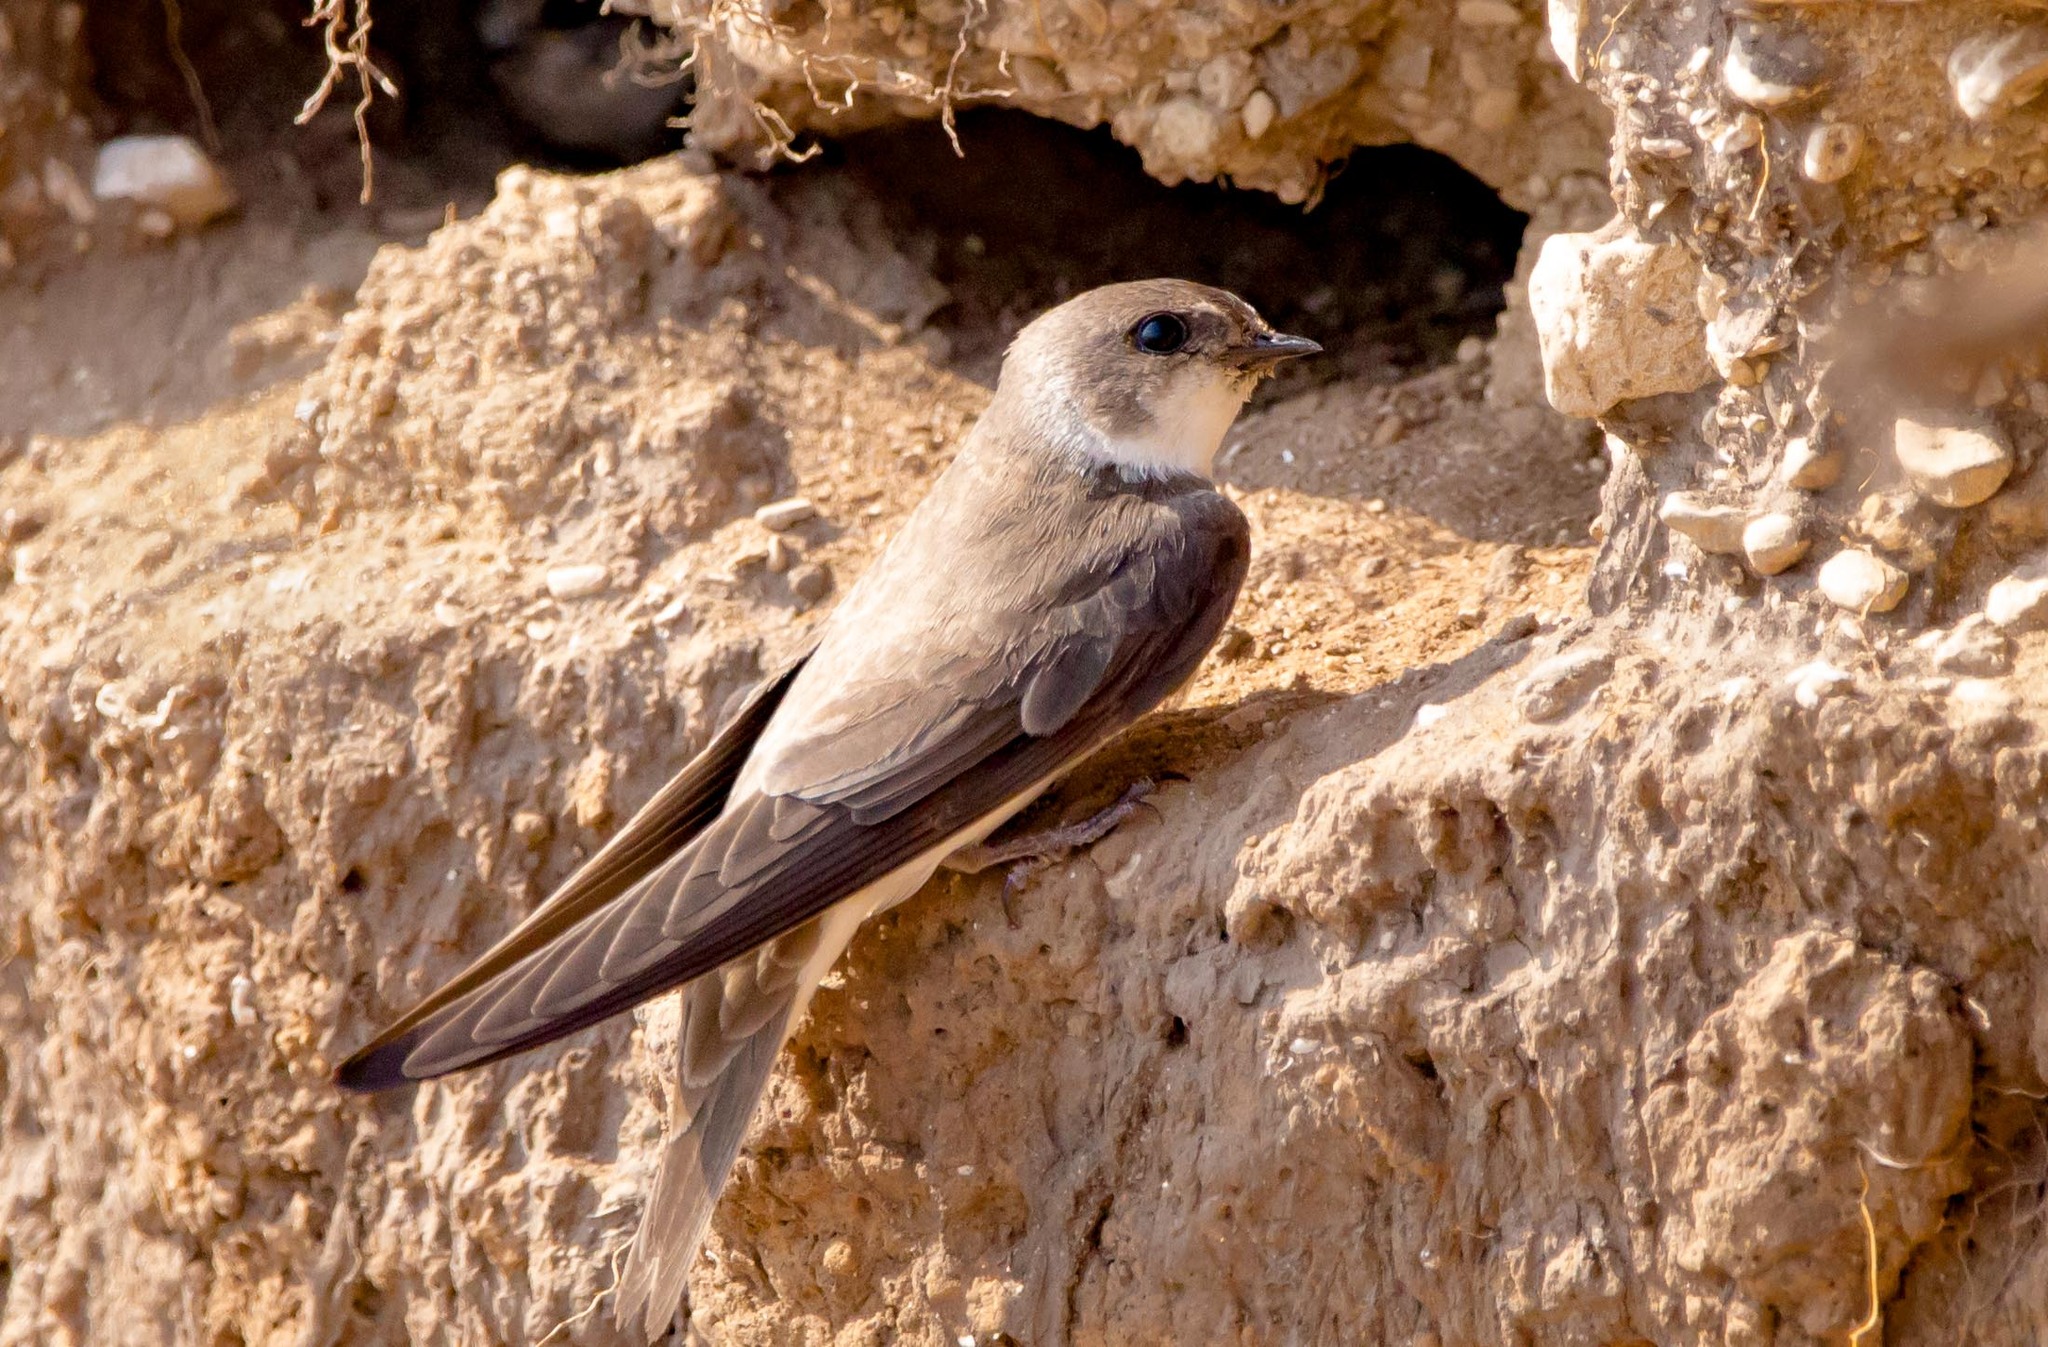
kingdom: Animalia
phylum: Chordata
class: Aves
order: Passeriformes
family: Hirundinidae
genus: Riparia
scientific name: Riparia riparia
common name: Sand martin
